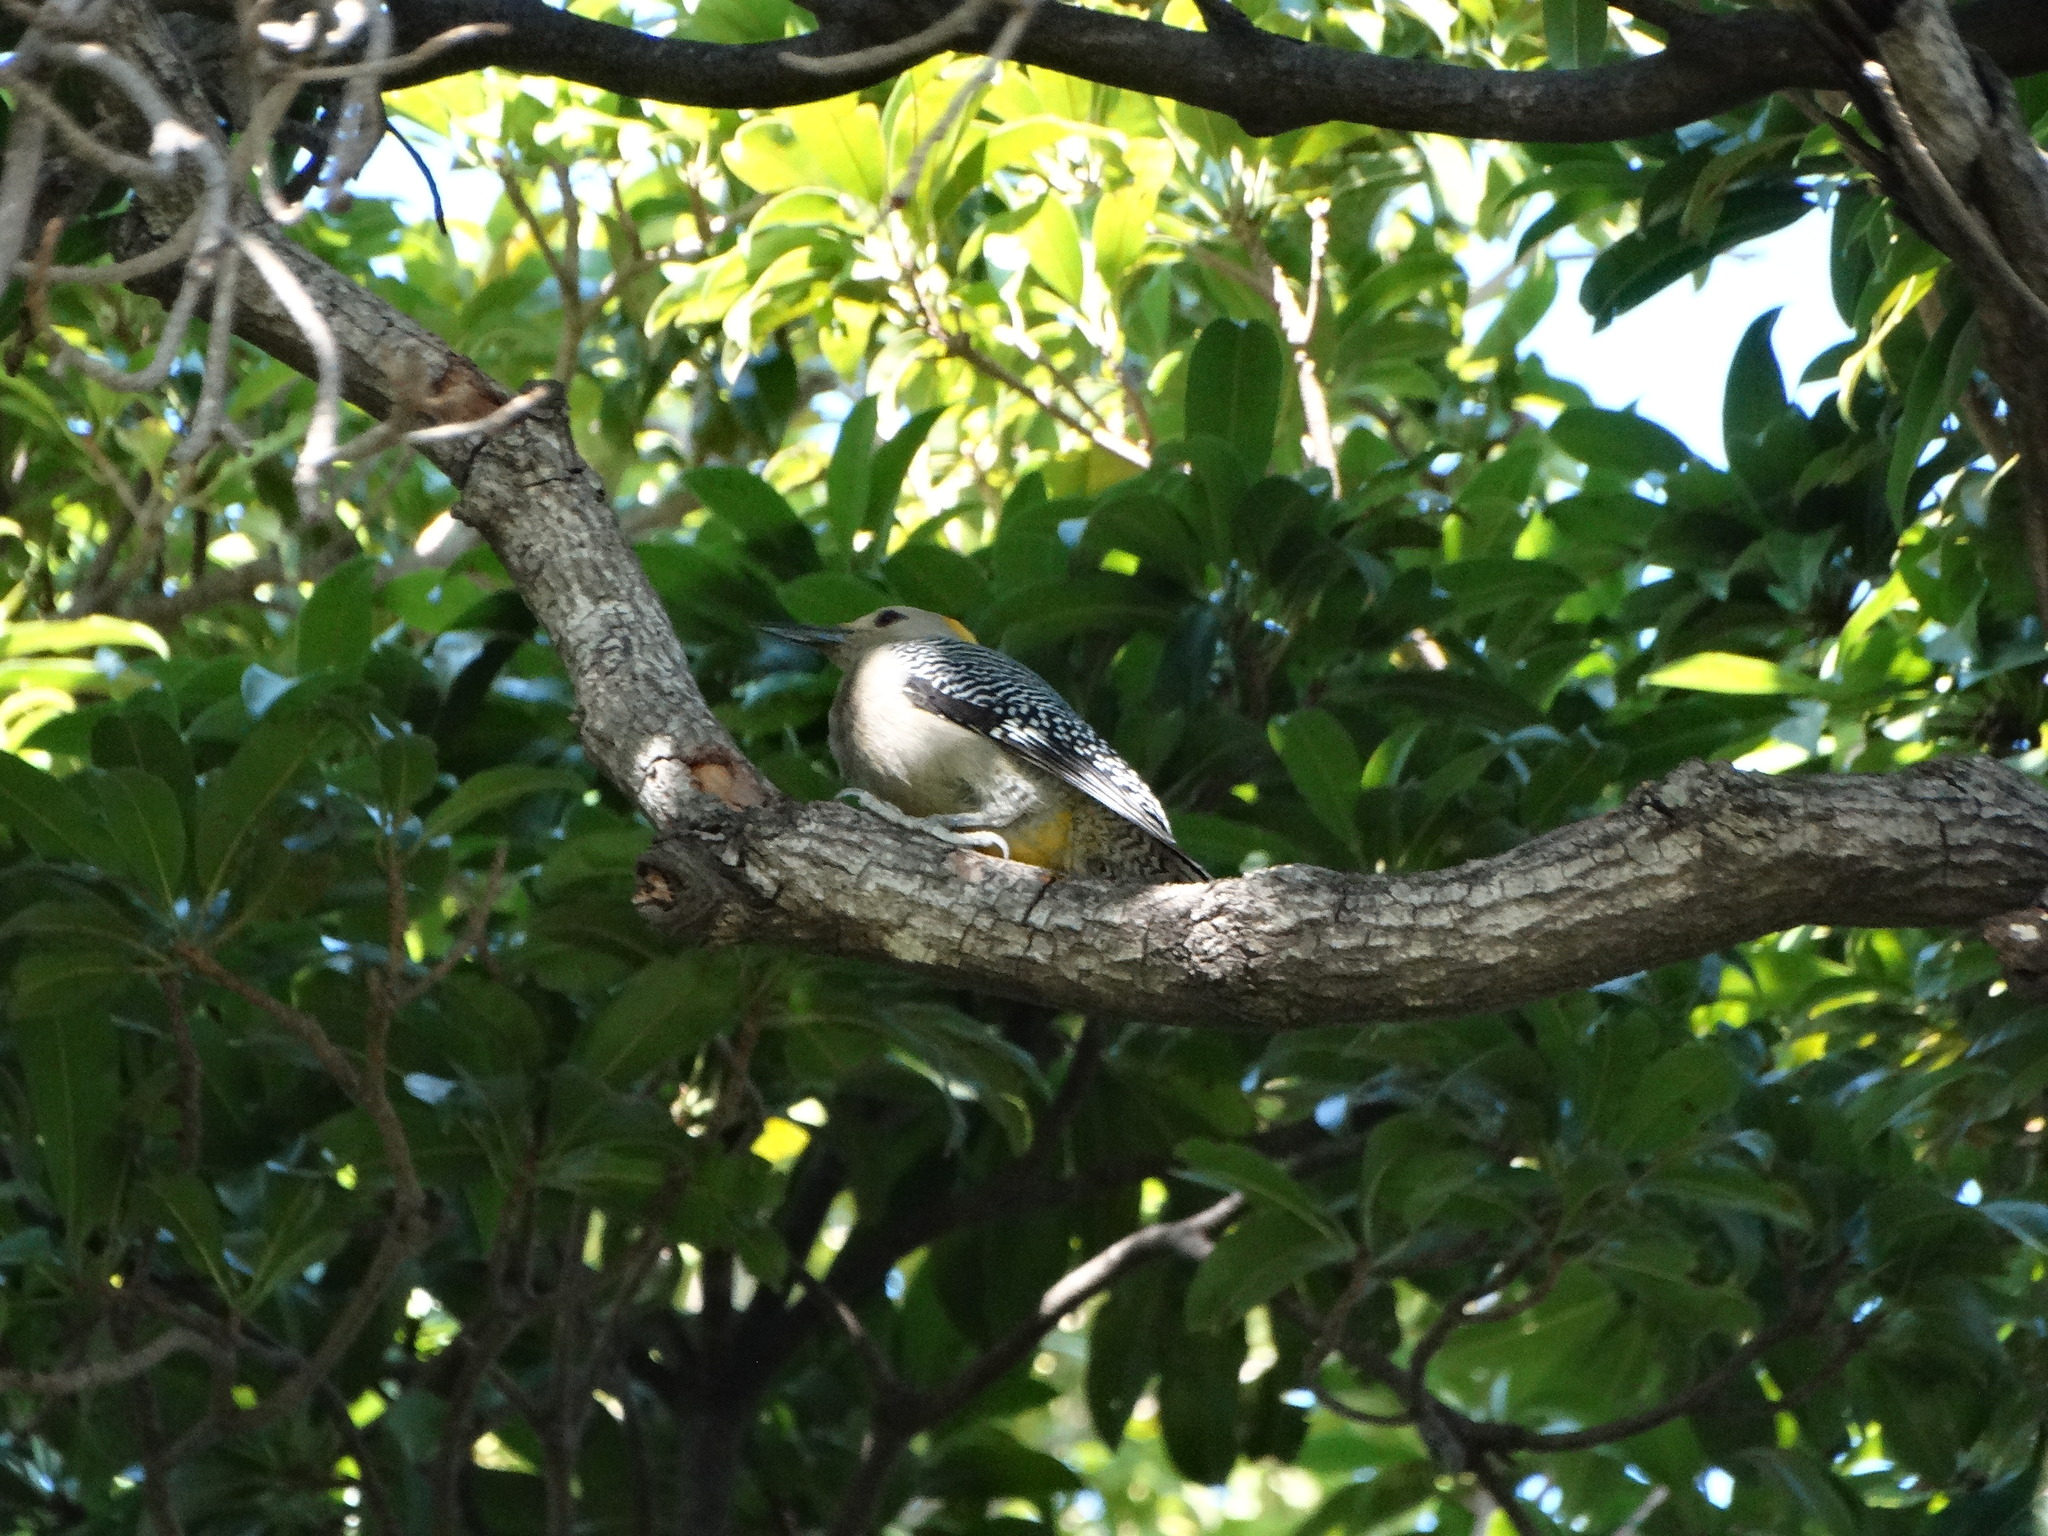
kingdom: Animalia
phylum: Chordata
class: Aves
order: Piciformes
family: Picidae
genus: Melanerpes
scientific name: Melanerpes aurifrons
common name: Golden-fronted woodpecker
